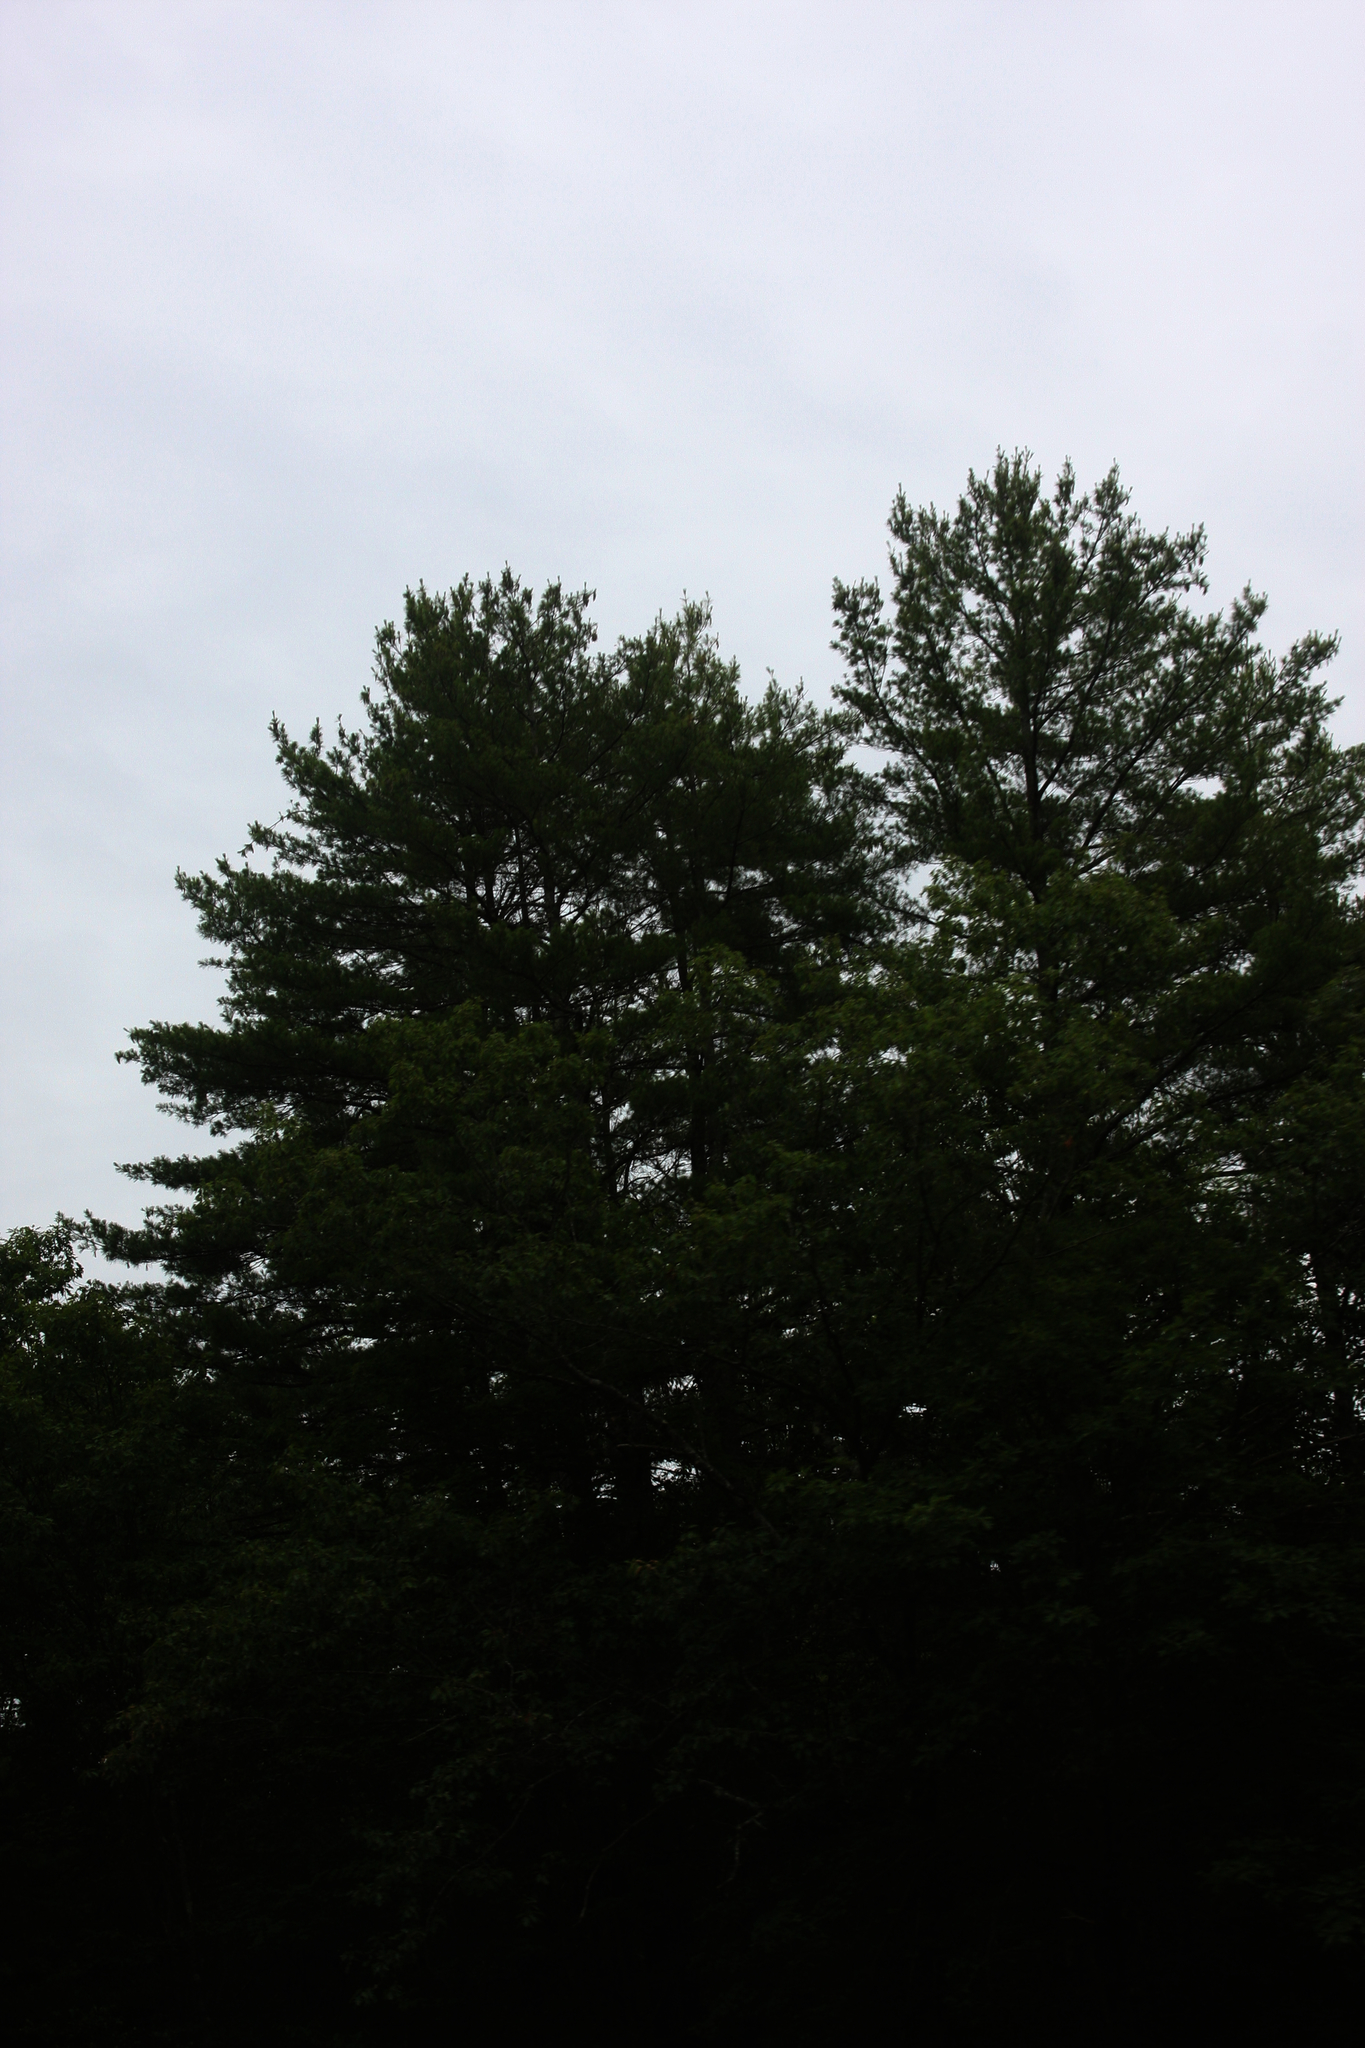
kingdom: Plantae
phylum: Tracheophyta
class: Pinopsida
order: Pinales
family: Pinaceae
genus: Pinus
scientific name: Pinus strobus
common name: Weymouth pine
